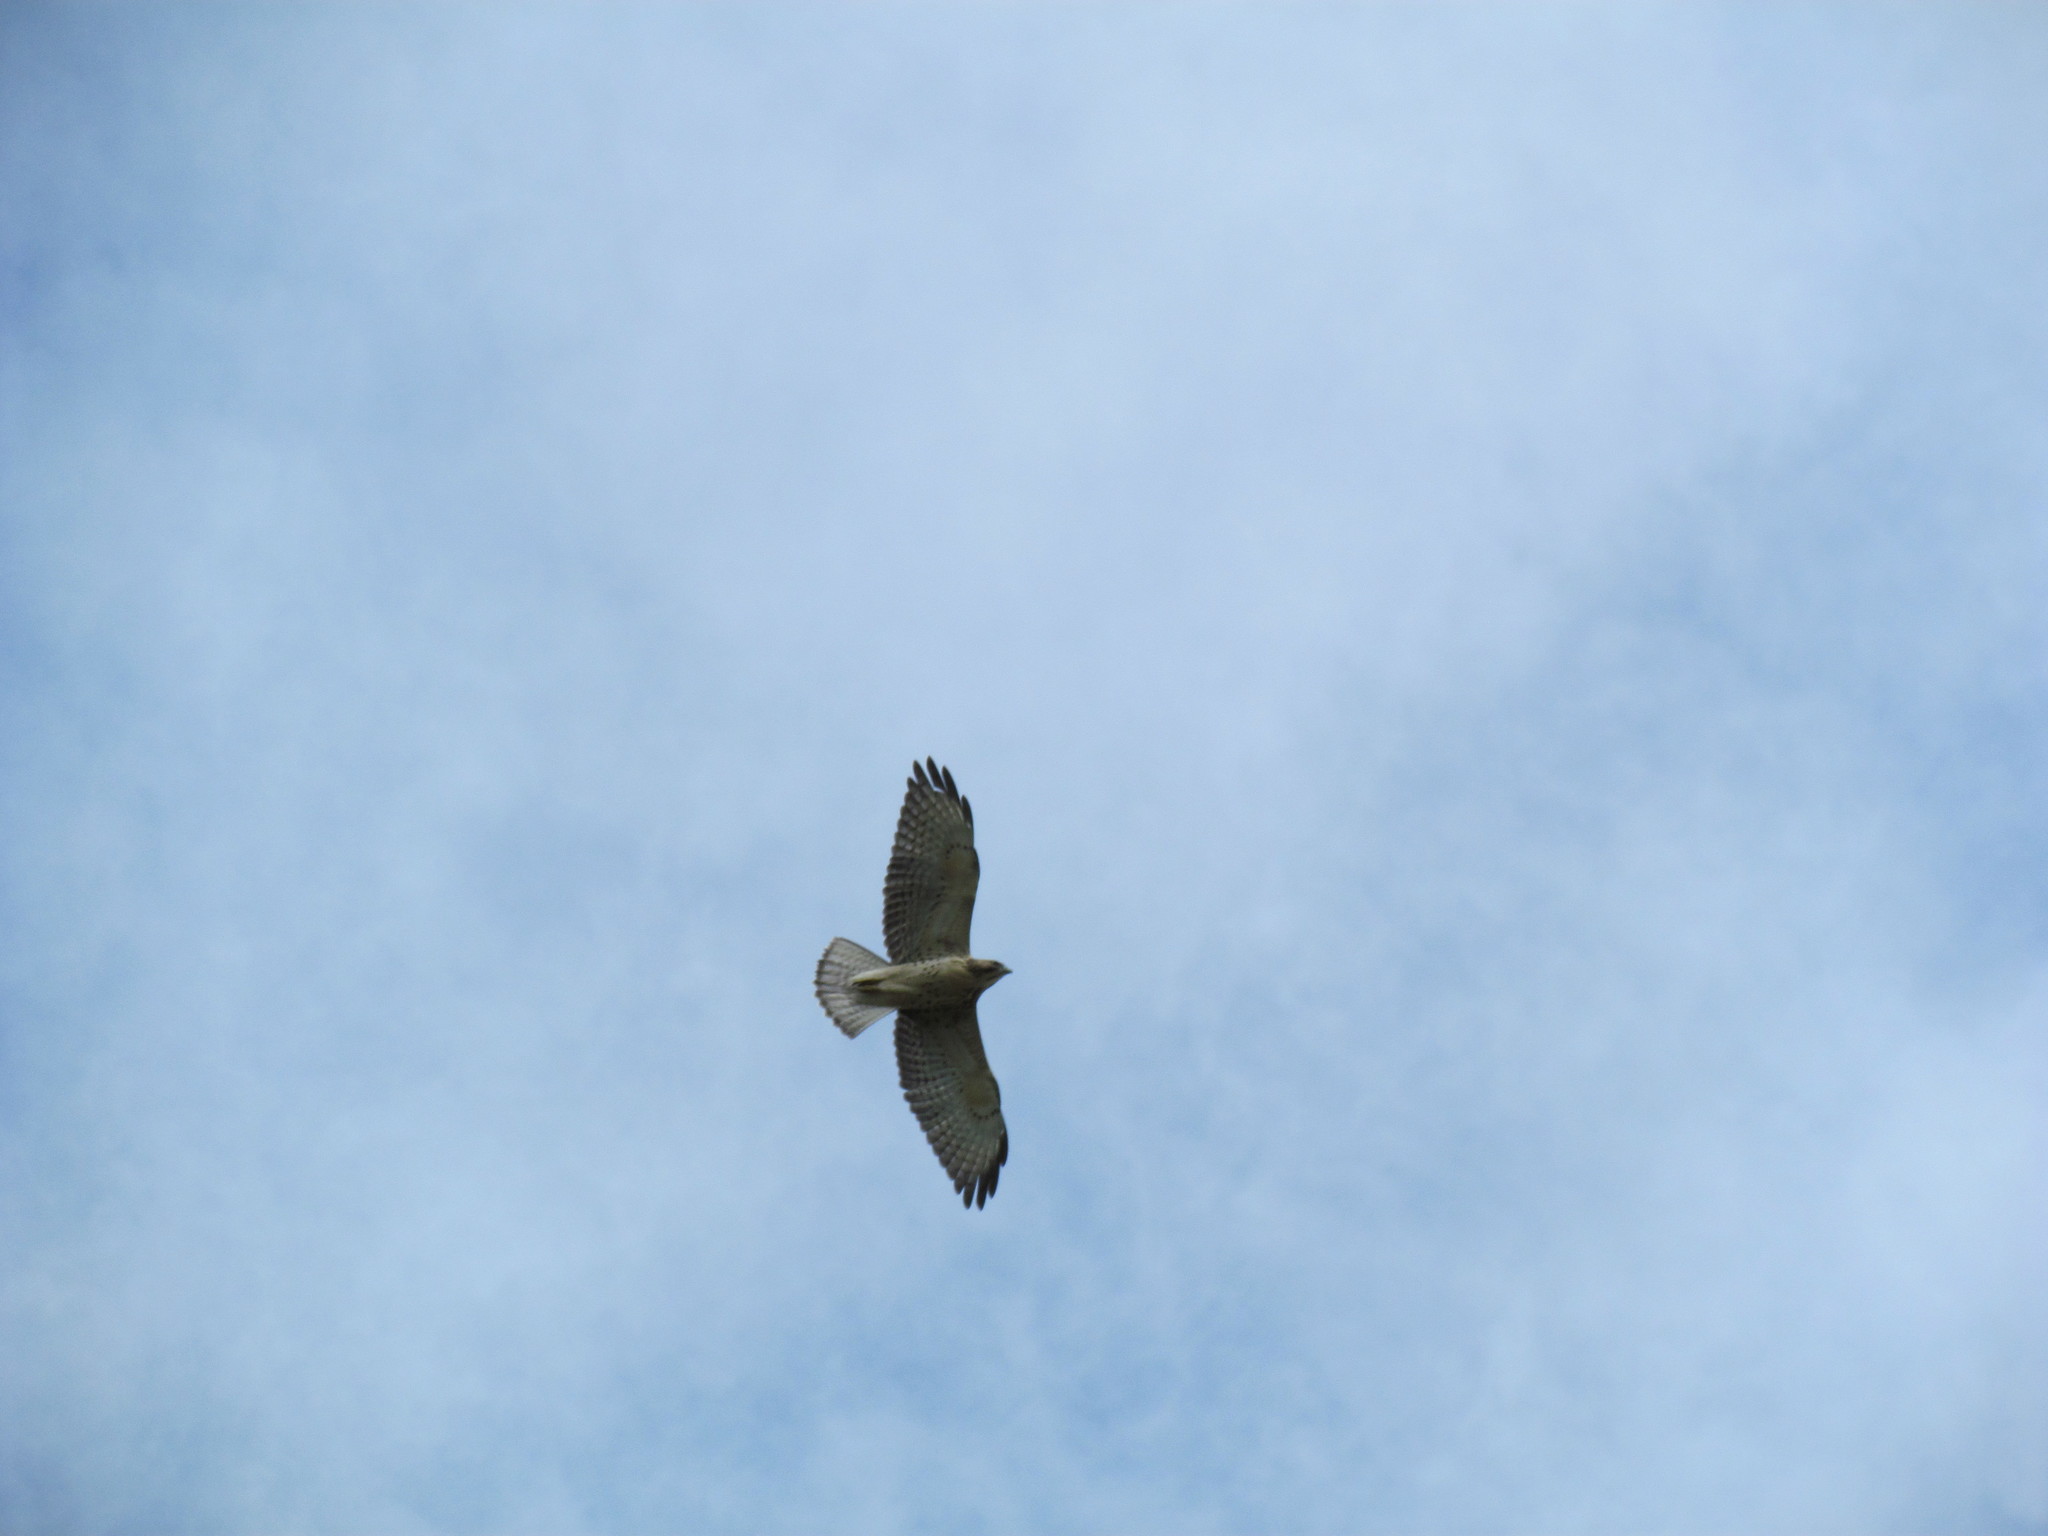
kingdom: Animalia
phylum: Chordata
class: Aves
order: Accipitriformes
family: Accipitridae
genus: Buteo
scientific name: Buteo platypterus
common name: Broad-winged hawk
